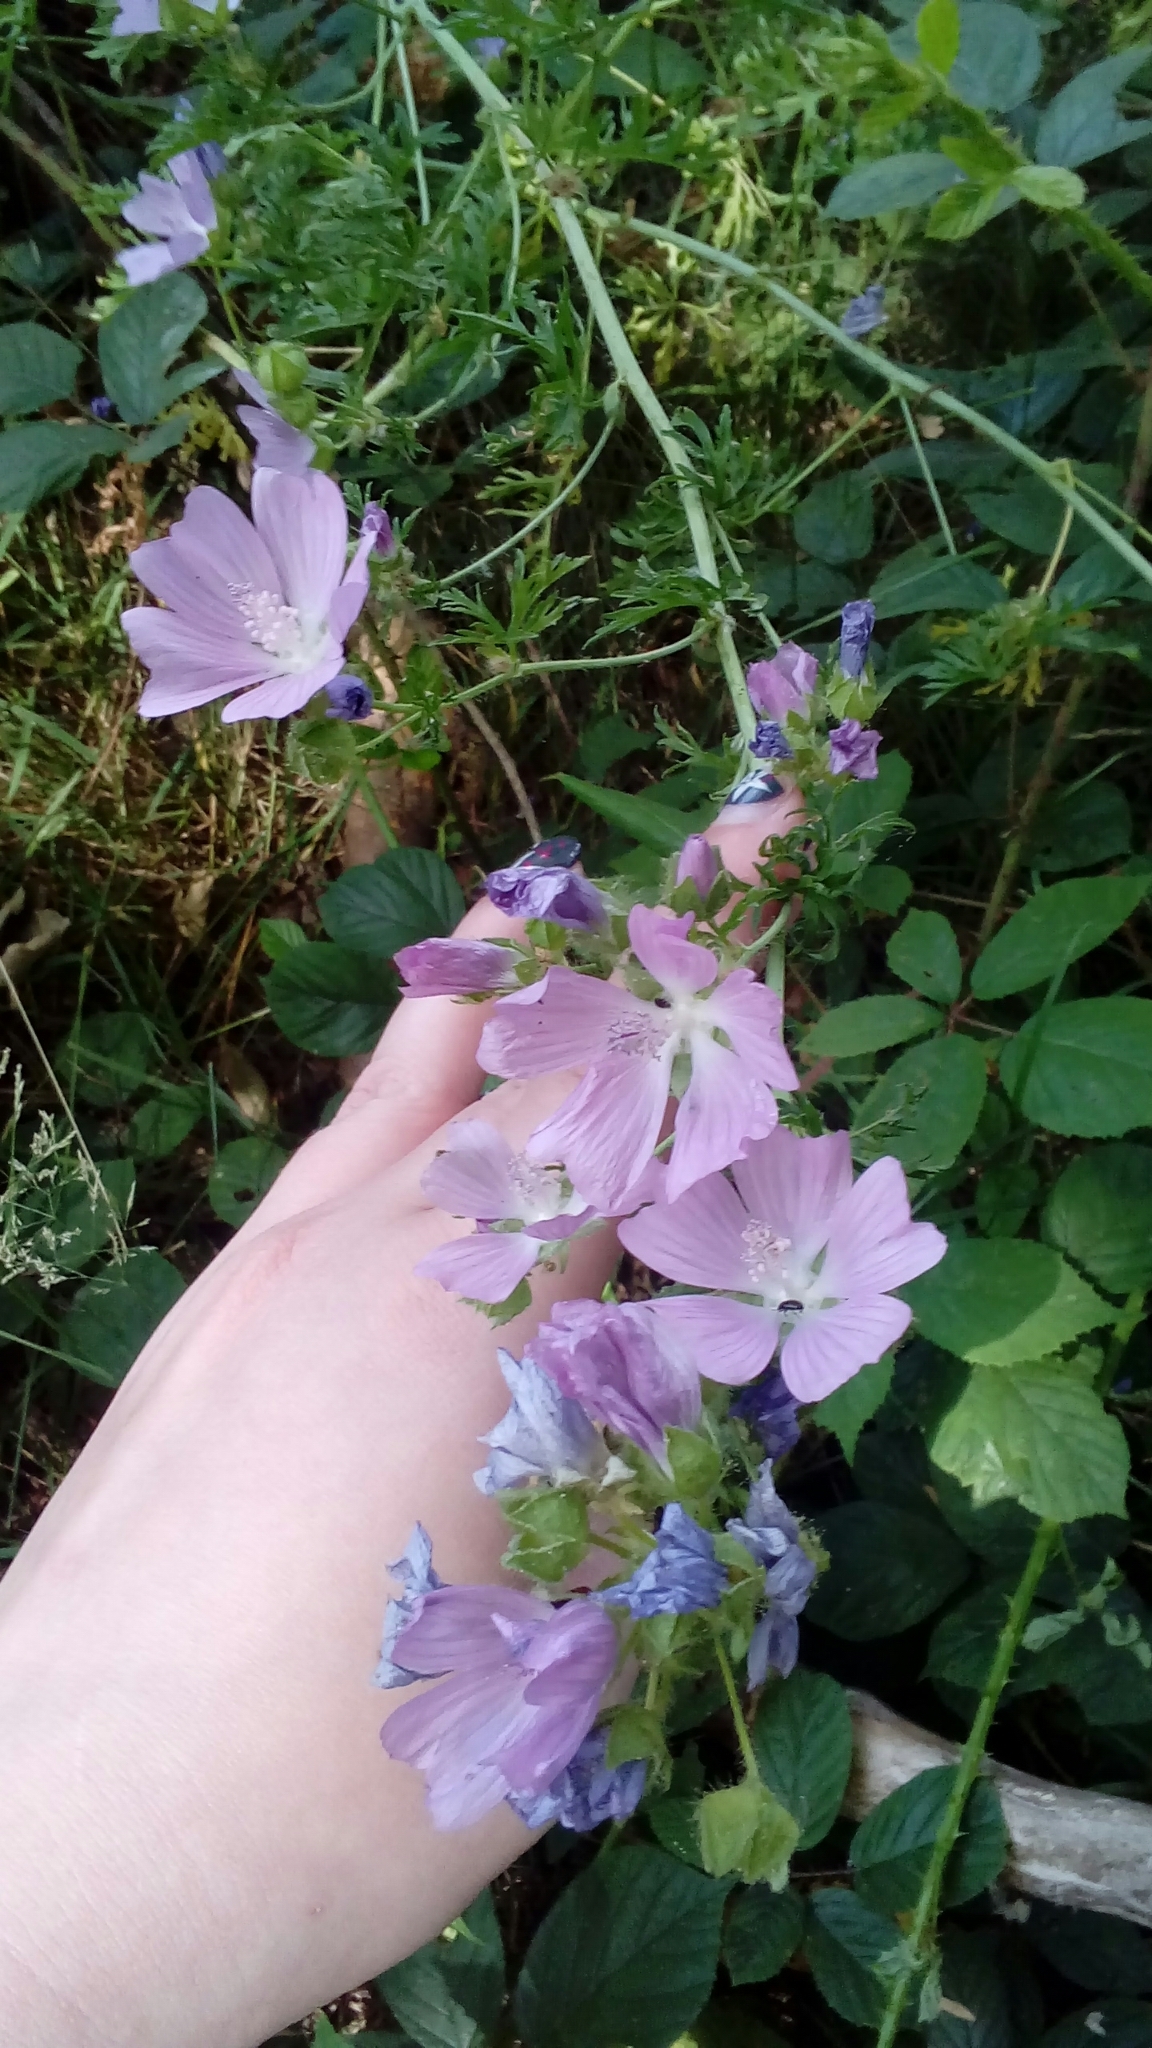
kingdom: Plantae
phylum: Tracheophyta
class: Magnoliopsida
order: Malvales
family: Malvaceae
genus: Malva
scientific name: Malva moschata
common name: Musk mallow
